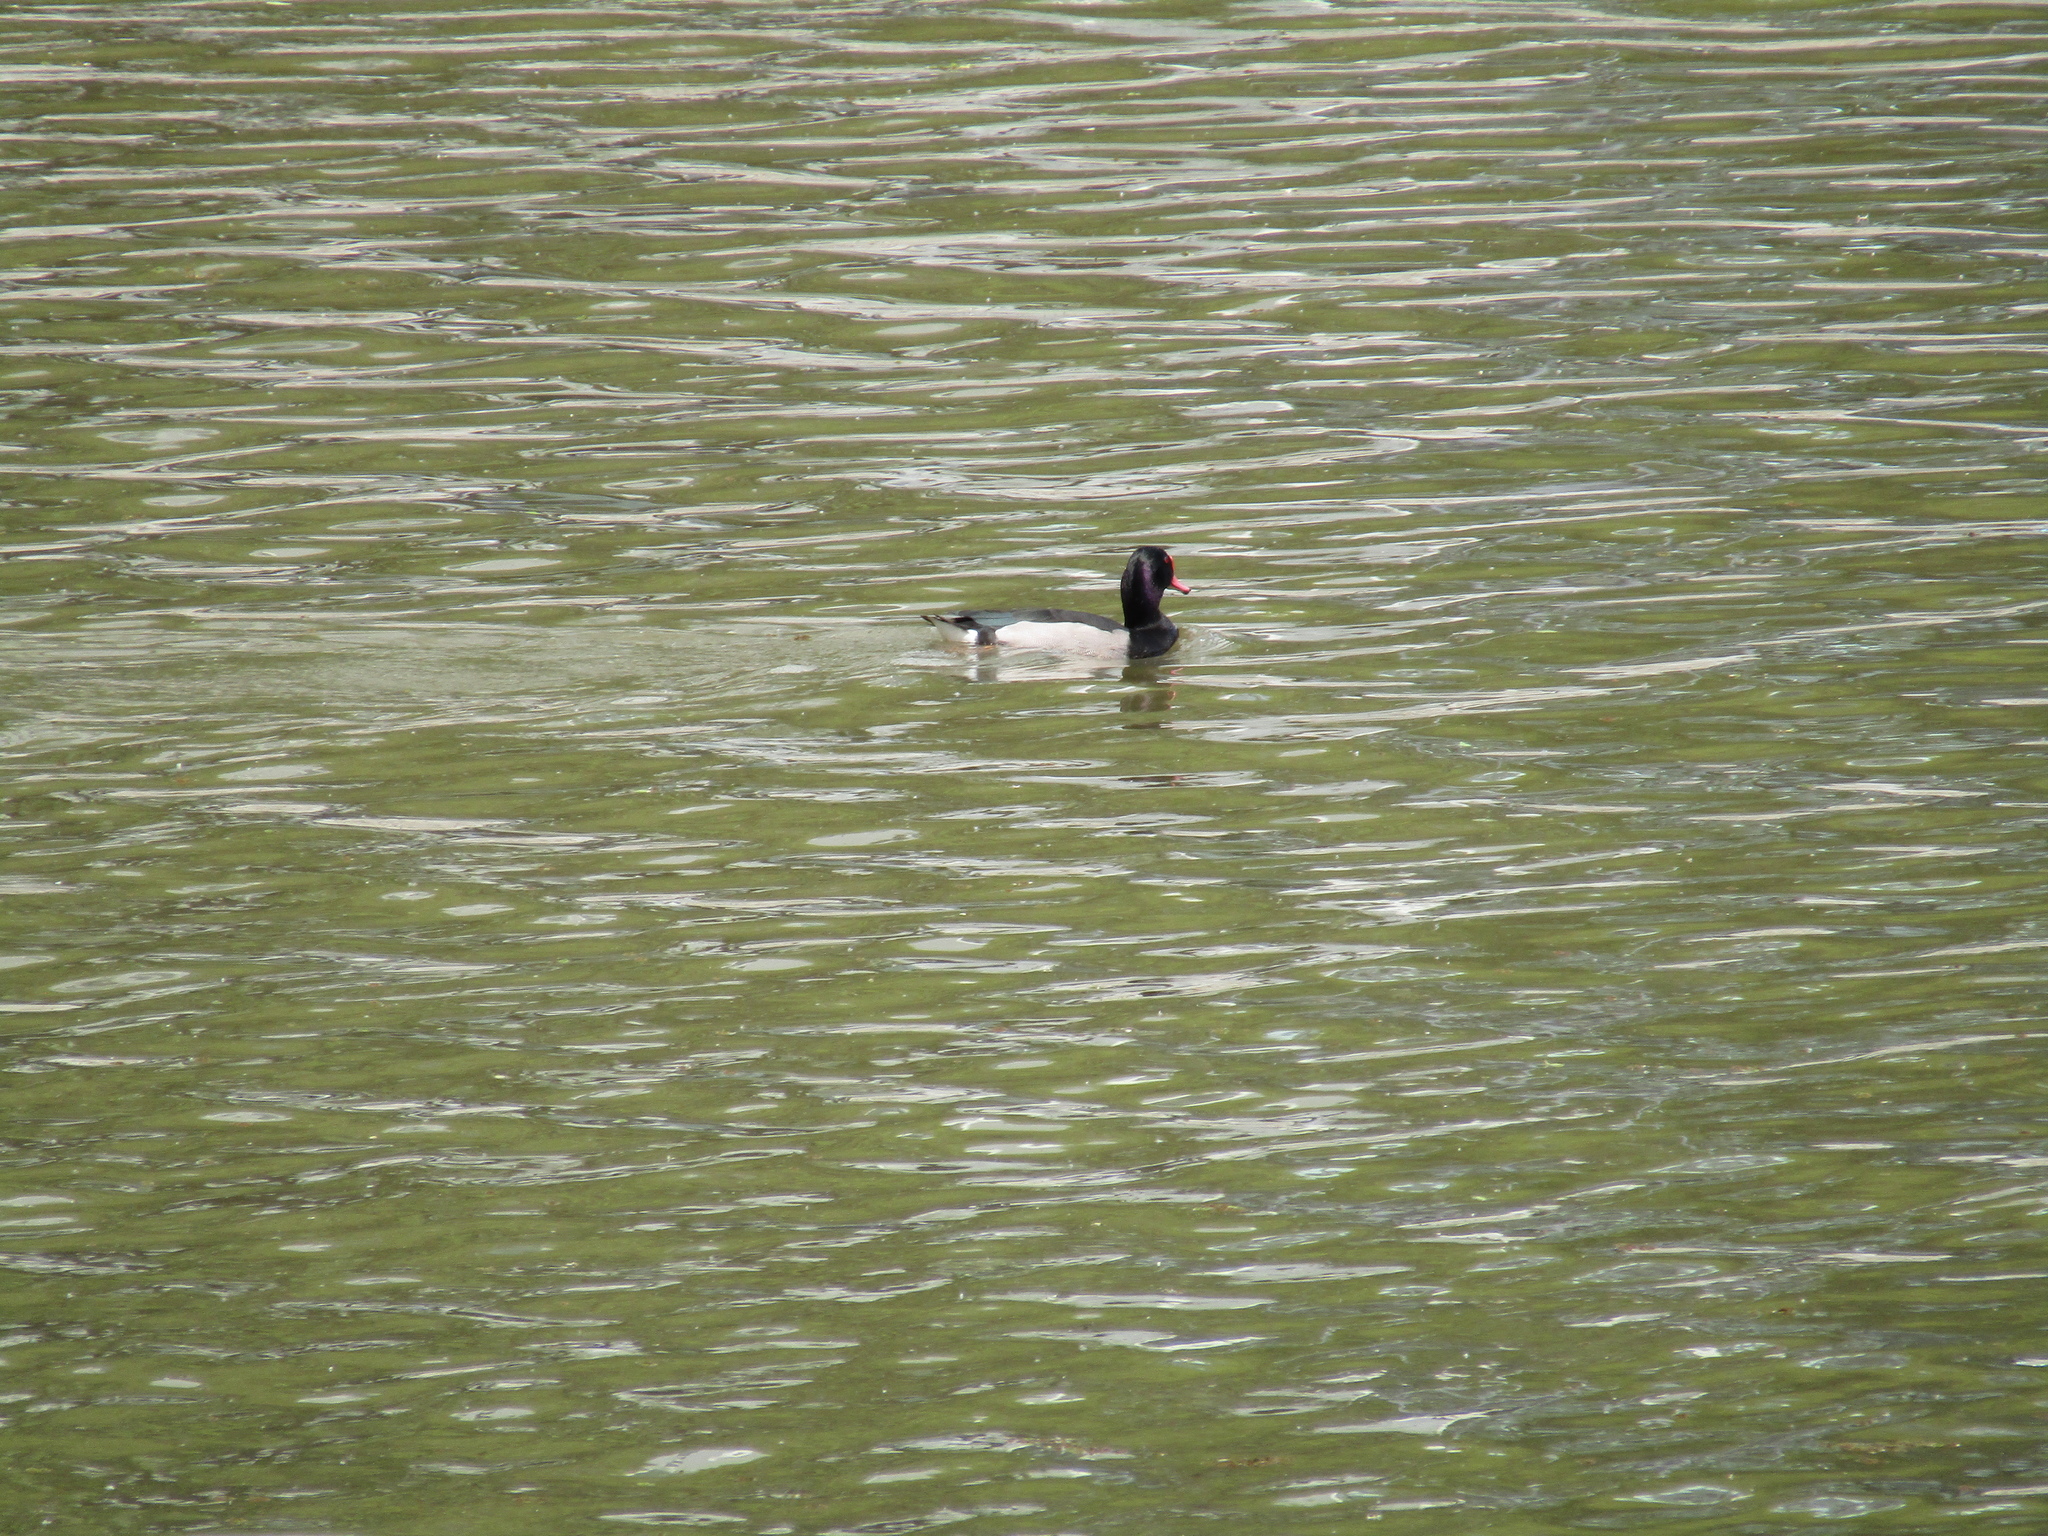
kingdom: Animalia
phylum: Chordata
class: Aves
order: Anseriformes
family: Anatidae
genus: Netta
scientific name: Netta peposaca
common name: Rosy-billed pochard
